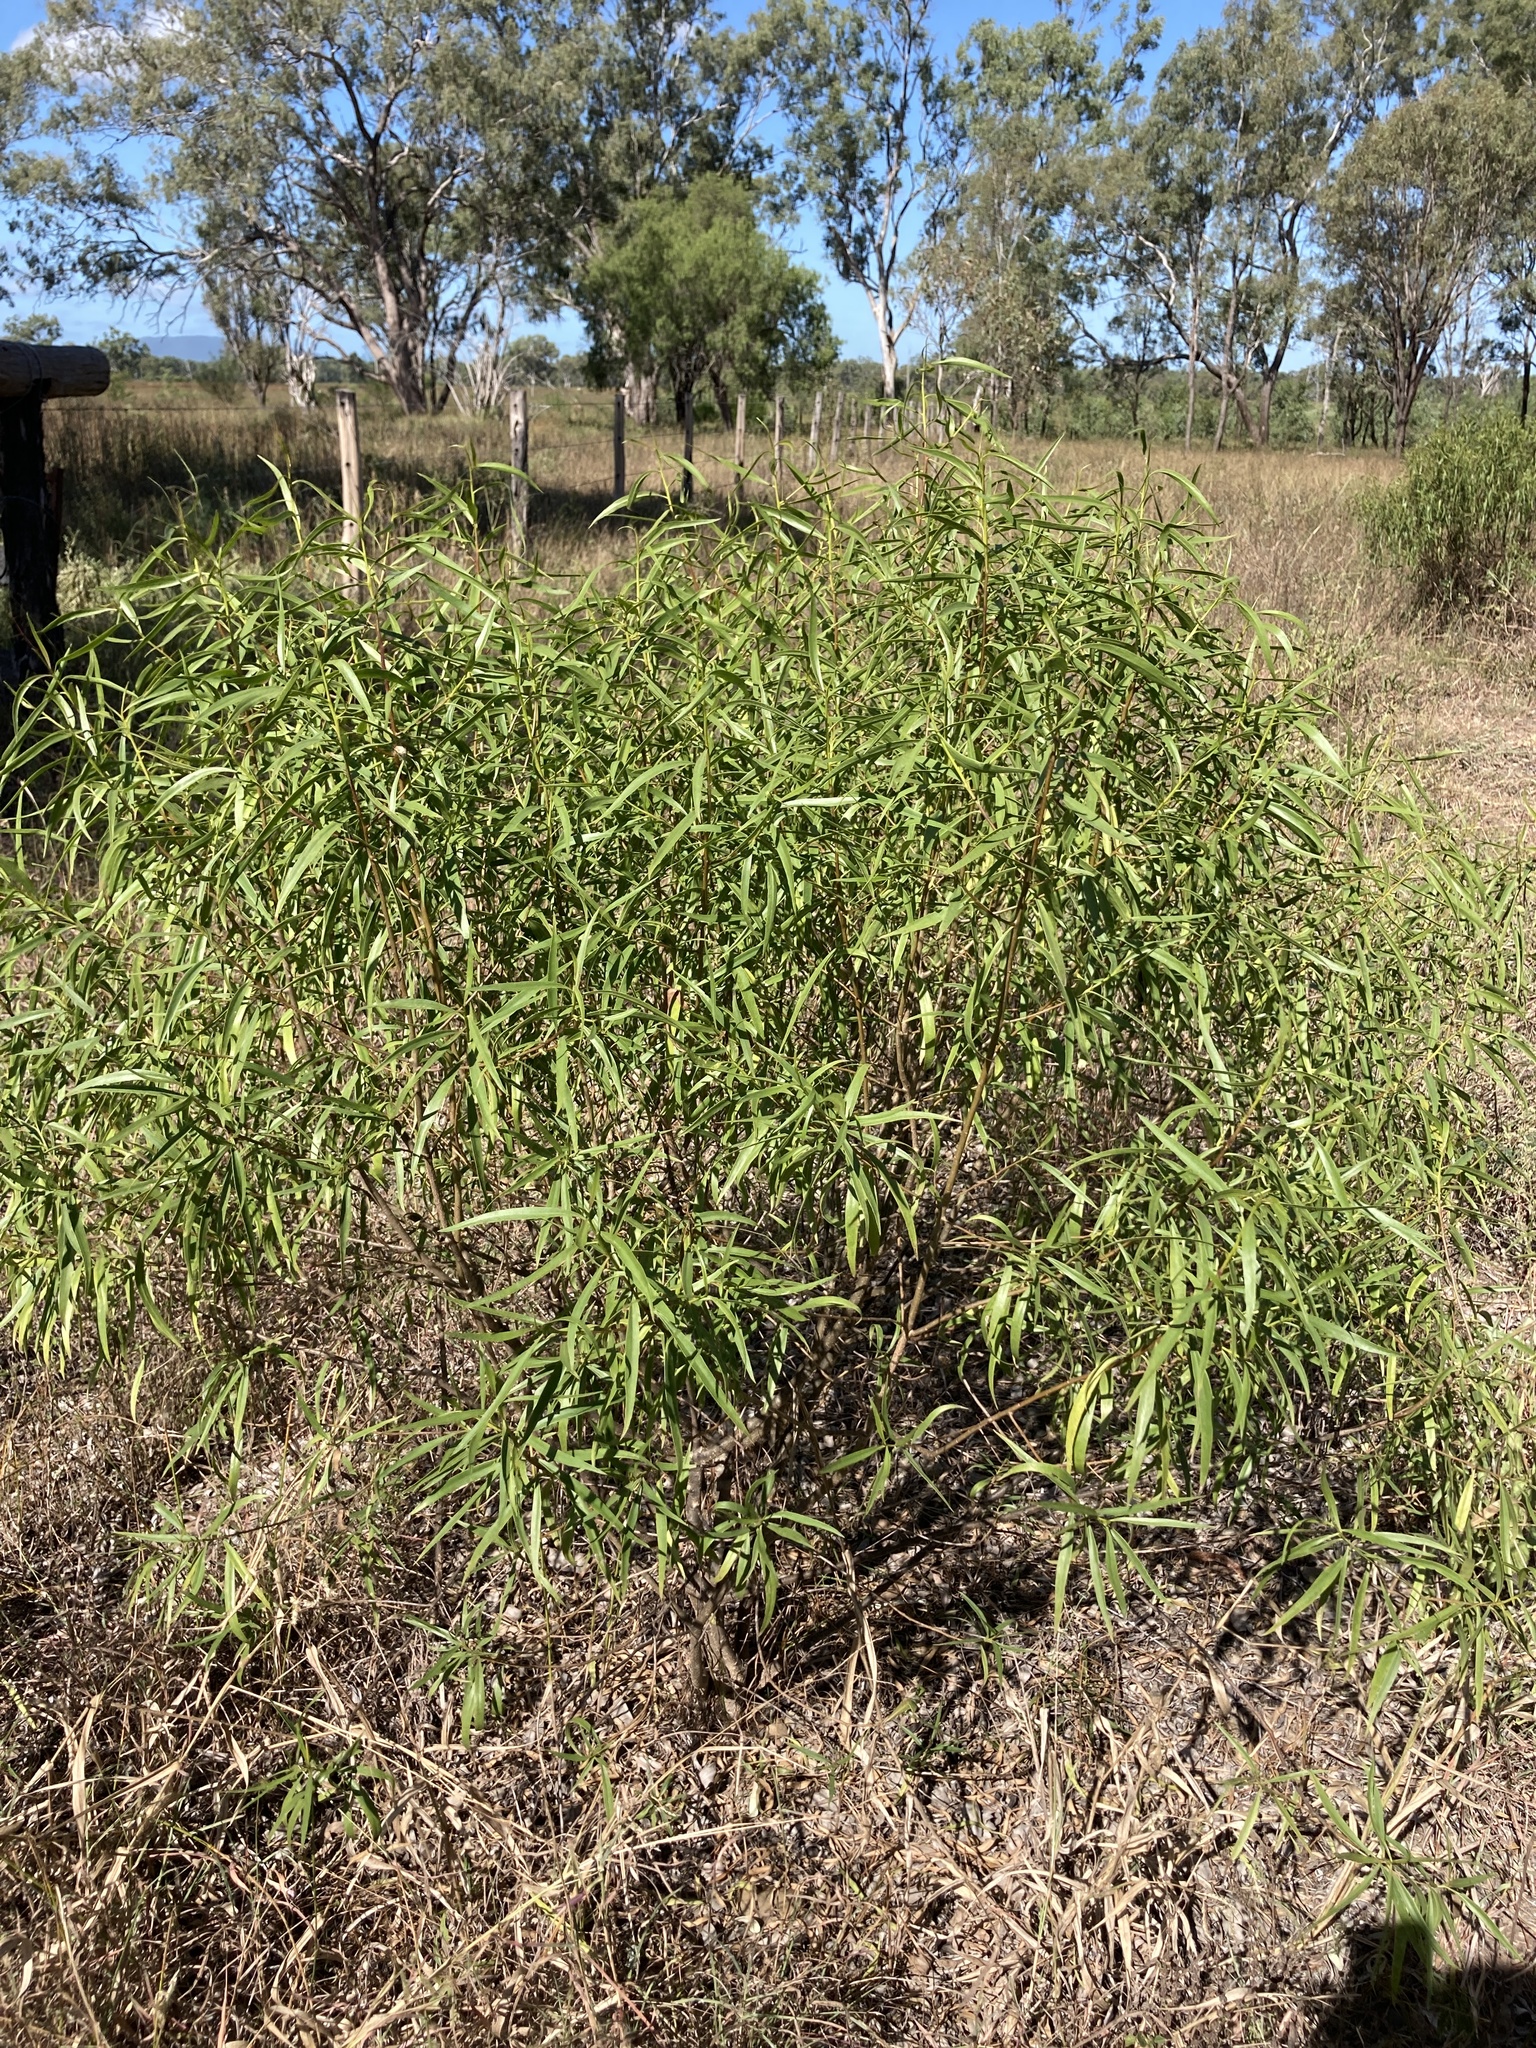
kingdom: Plantae
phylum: Tracheophyta
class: Magnoliopsida
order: Lamiales
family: Scrophulariaceae
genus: Eremophila
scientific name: Eremophila bignoniiflora
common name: Bignonia emu-bush
